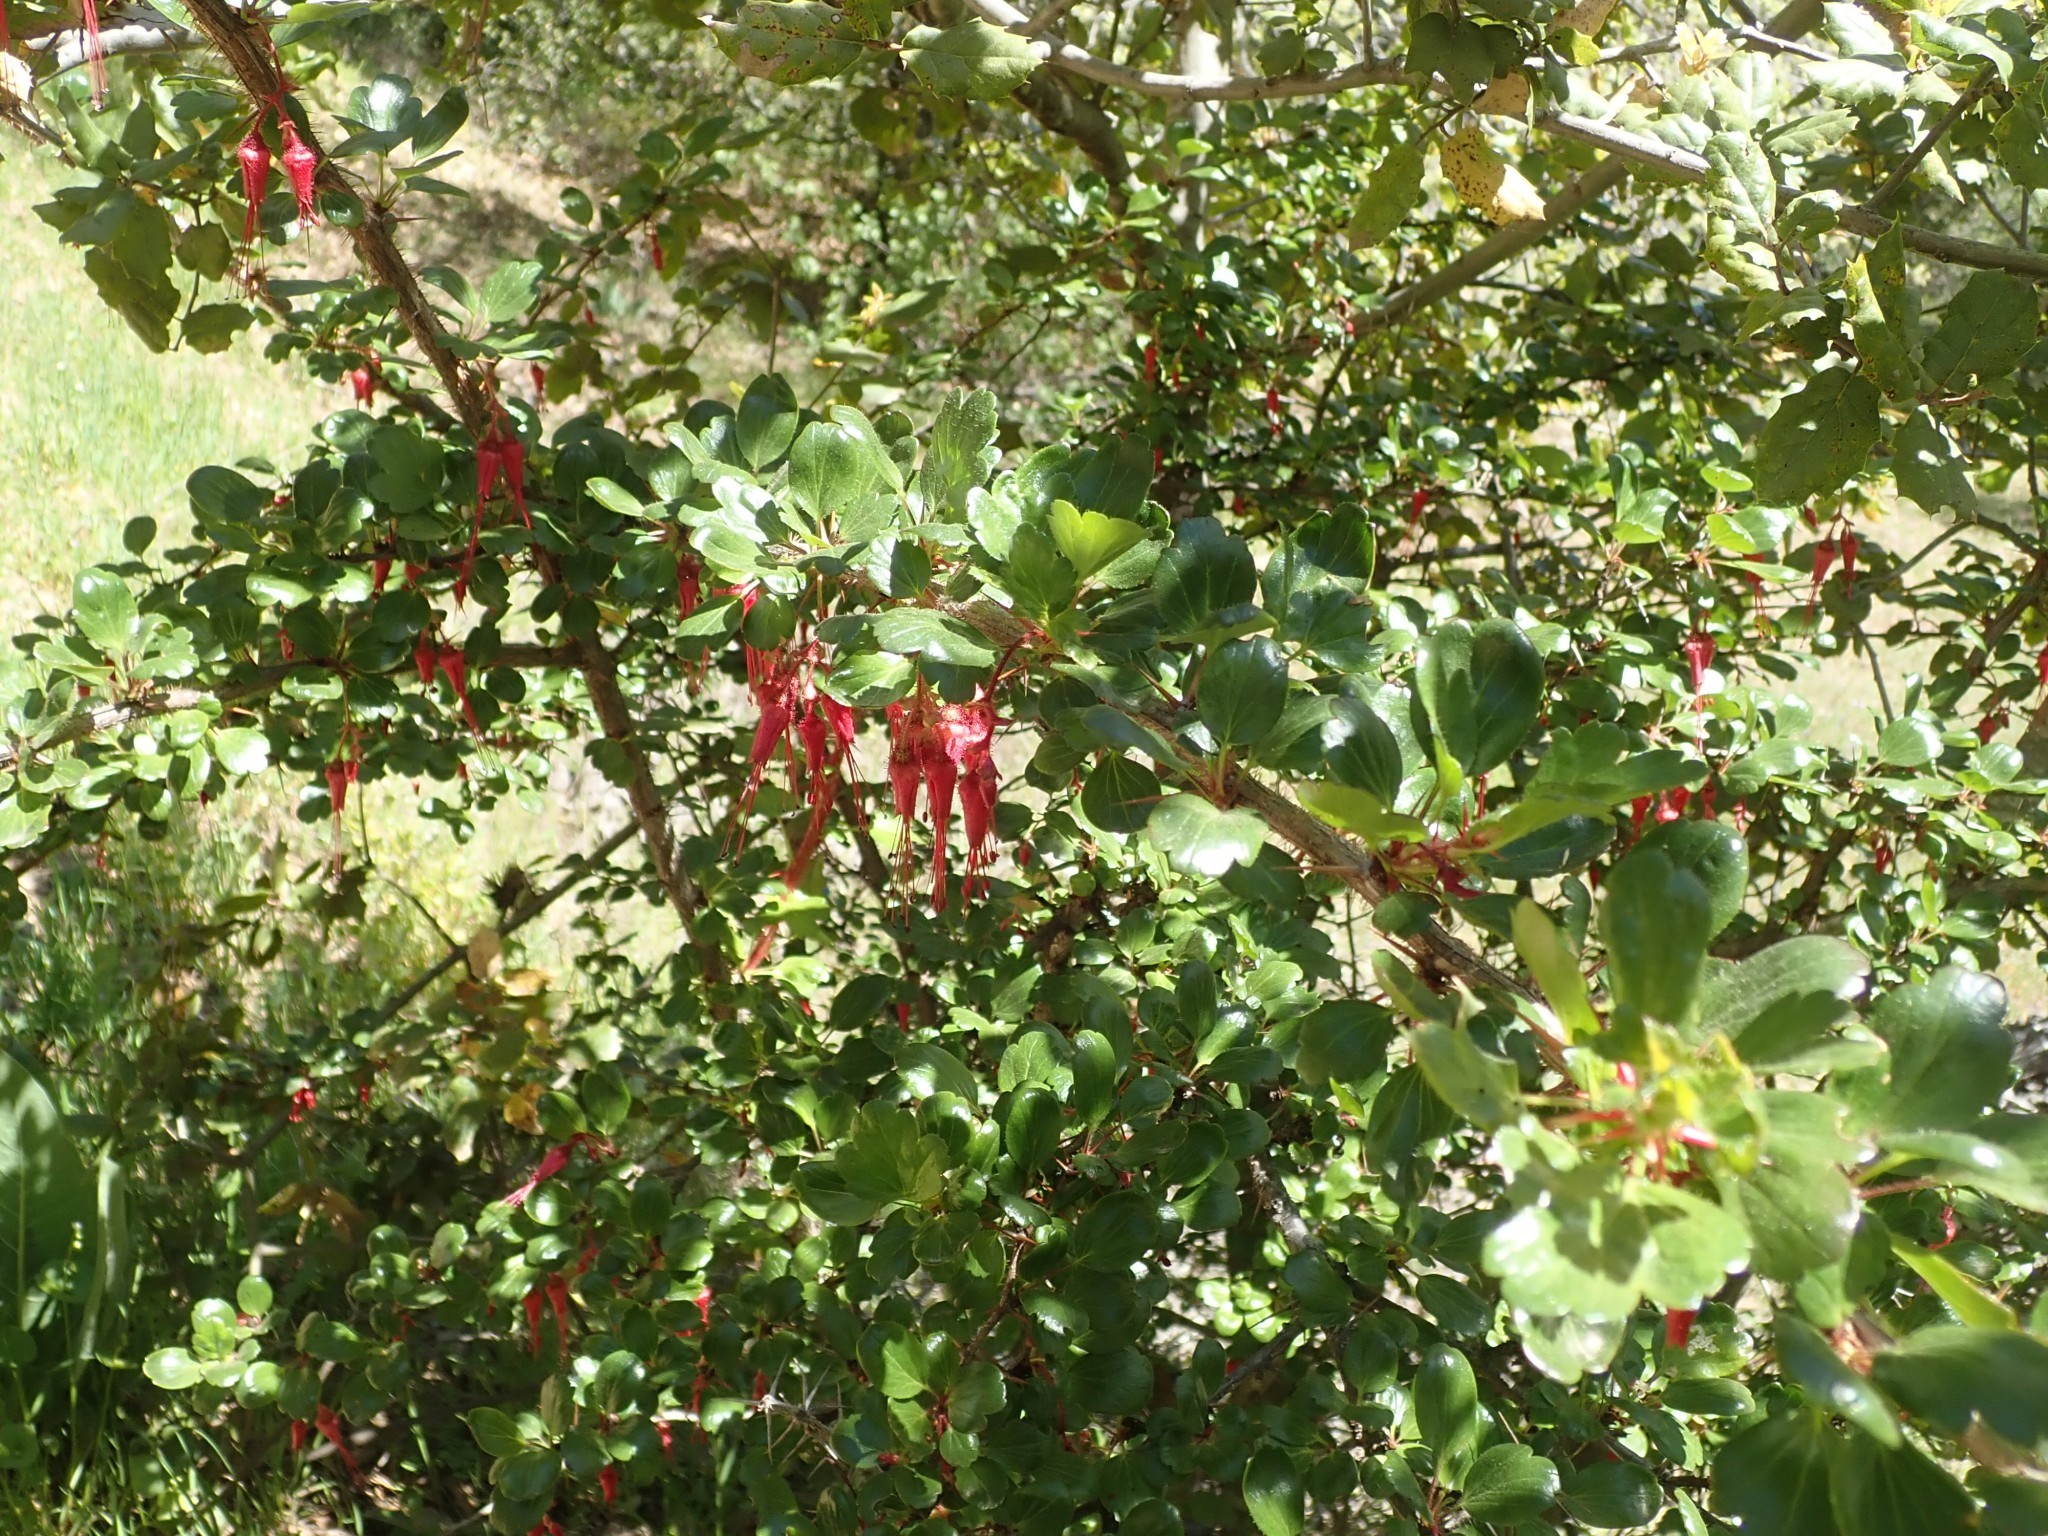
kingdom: Plantae
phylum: Tracheophyta
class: Magnoliopsida
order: Saxifragales
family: Grossulariaceae
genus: Ribes
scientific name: Ribes speciosum
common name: Fuchsia-flower gooseberry
